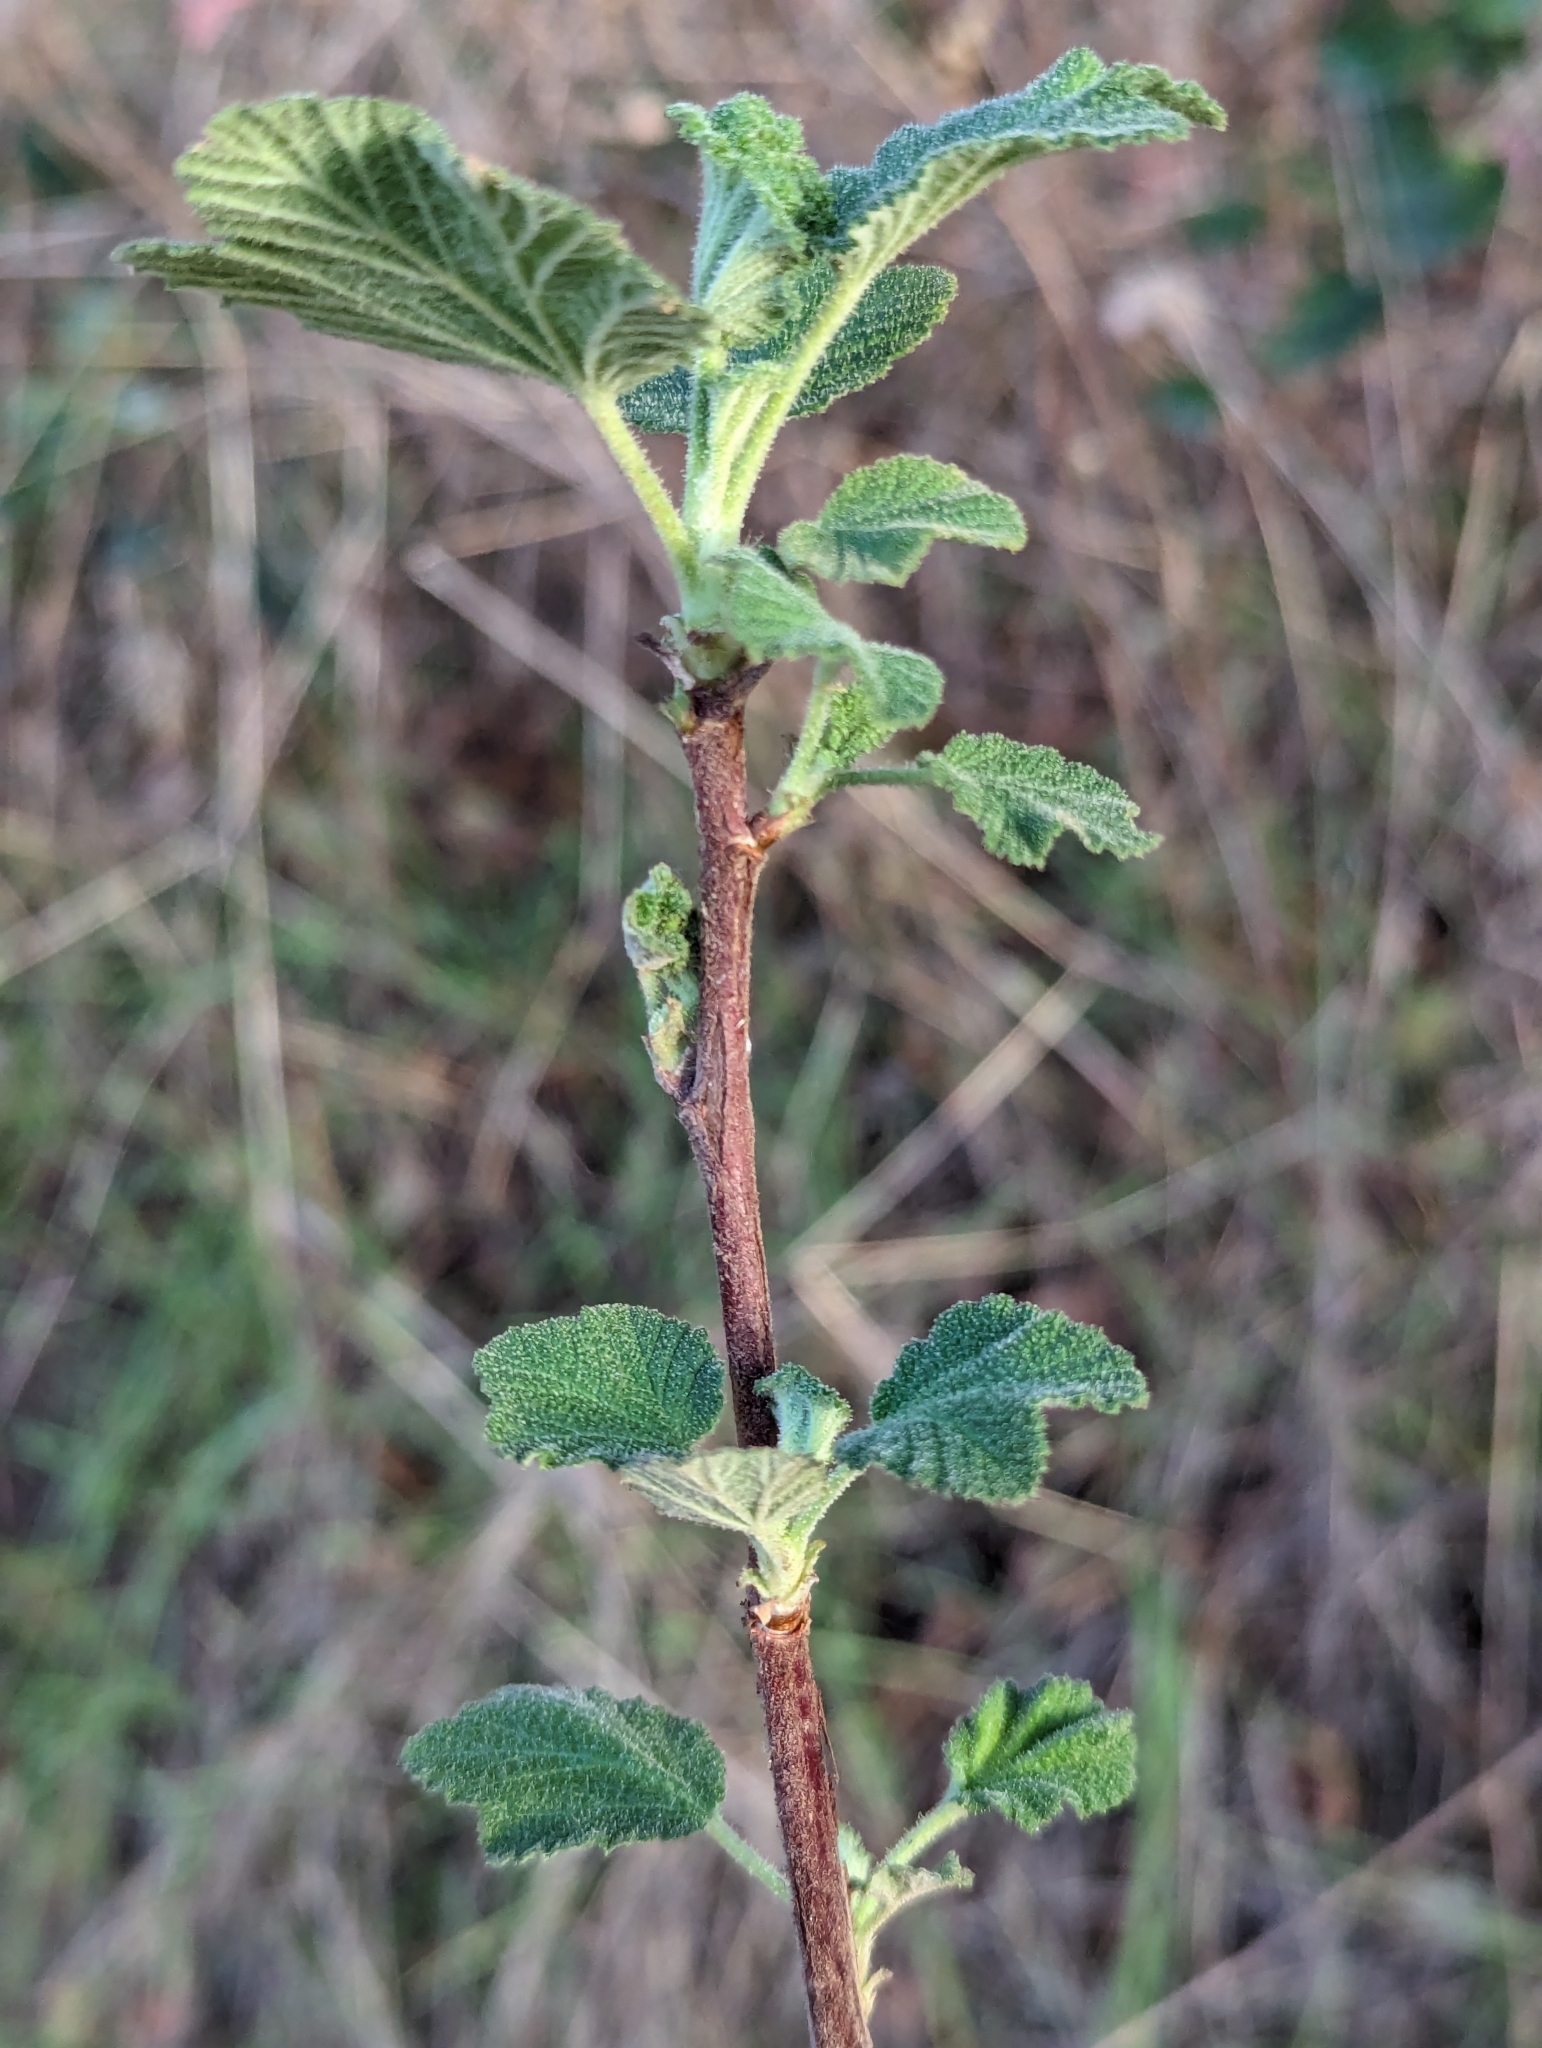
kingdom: Plantae
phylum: Tracheophyta
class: Magnoliopsida
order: Saxifragales
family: Grossulariaceae
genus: Ribes
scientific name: Ribes indecorum
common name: White-flower currant
